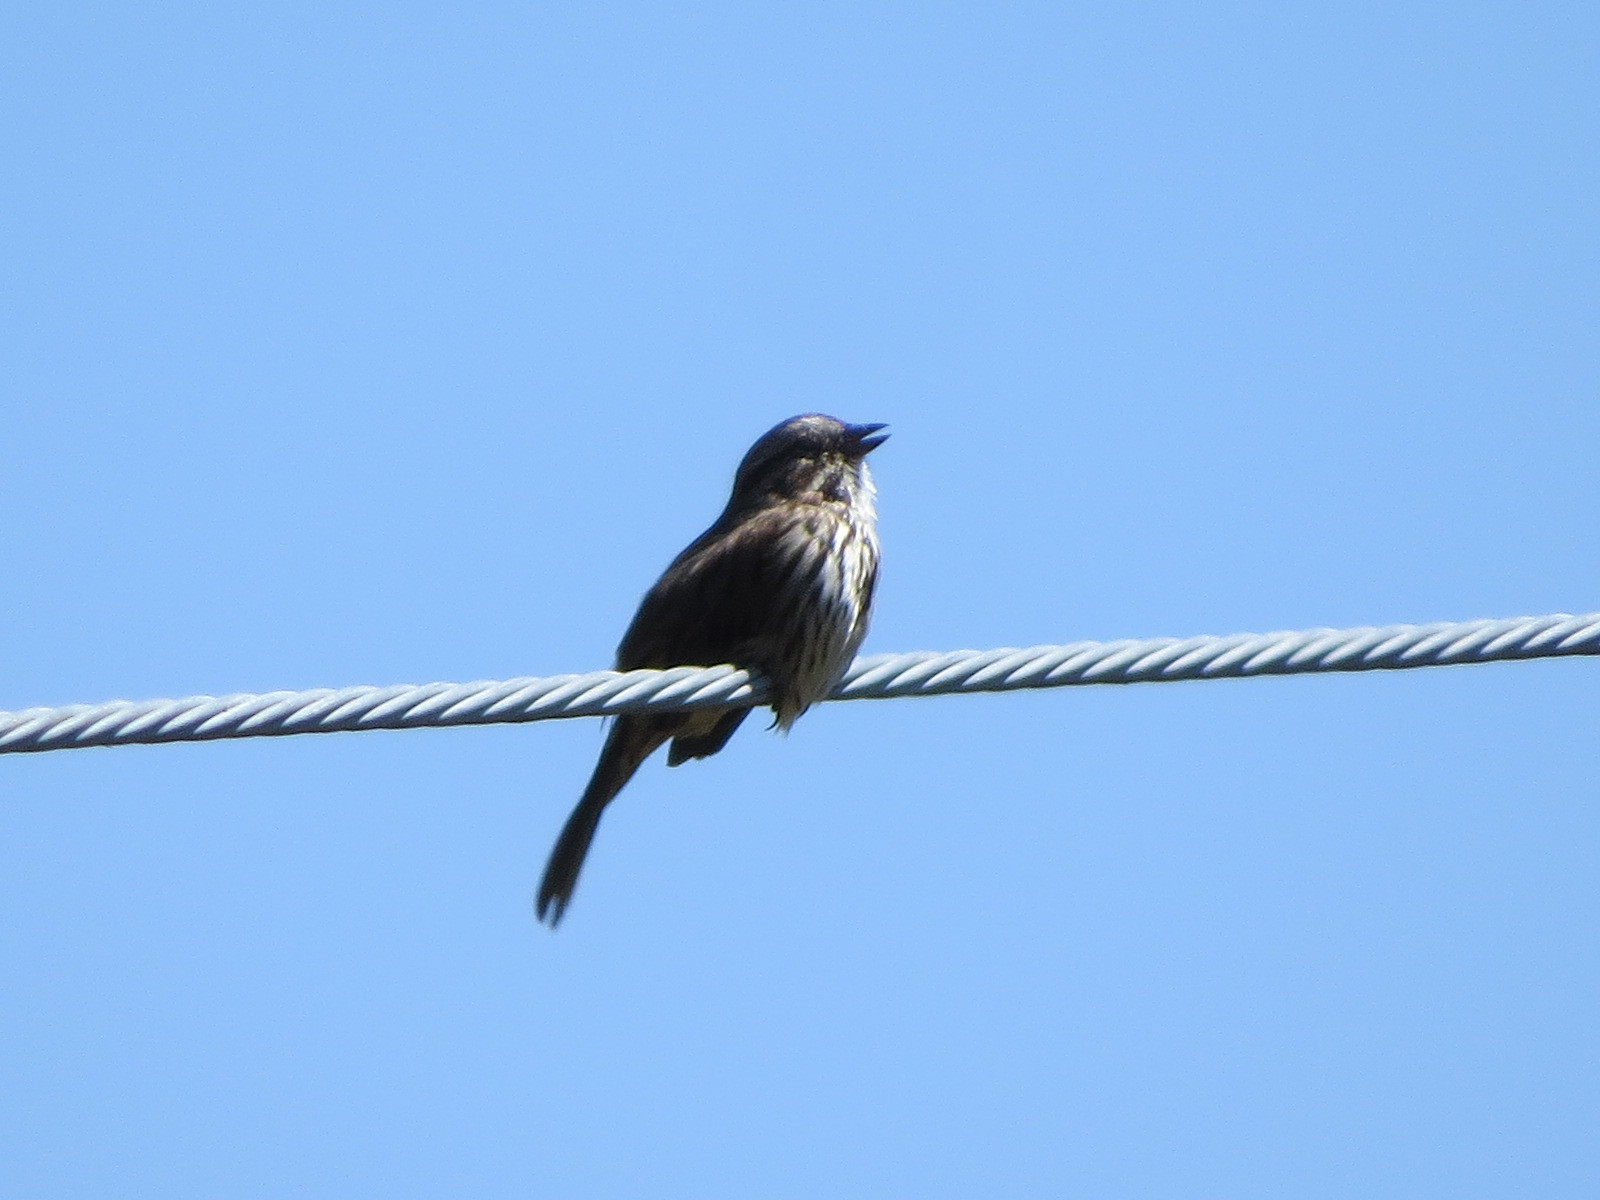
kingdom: Animalia
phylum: Chordata
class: Aves
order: Passeriformes
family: Passerellidae
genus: Melospiza
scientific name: Melospiza melodia
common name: Song sparrow
